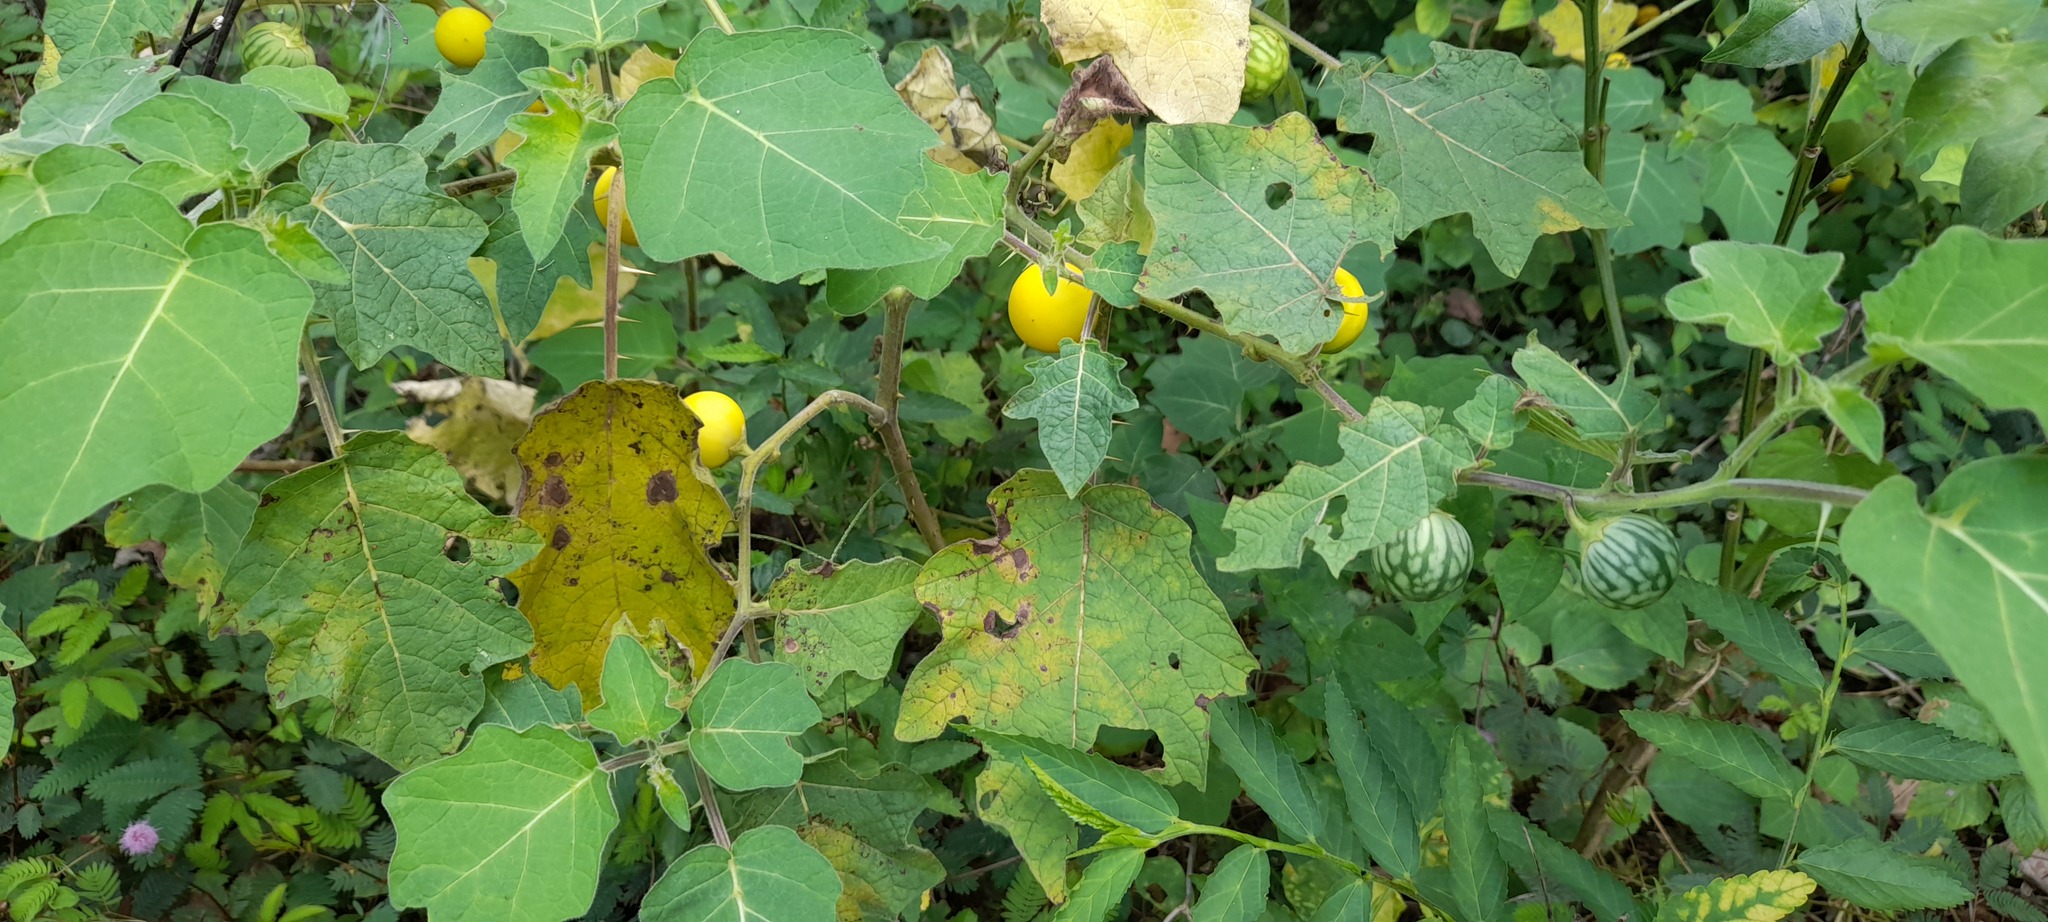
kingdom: Plantae
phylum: Tracheophyta
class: Magnoliopsida
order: Solanales
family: Solanaceae
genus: Solanum
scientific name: Solanum viarum
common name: Tropical soda apple
